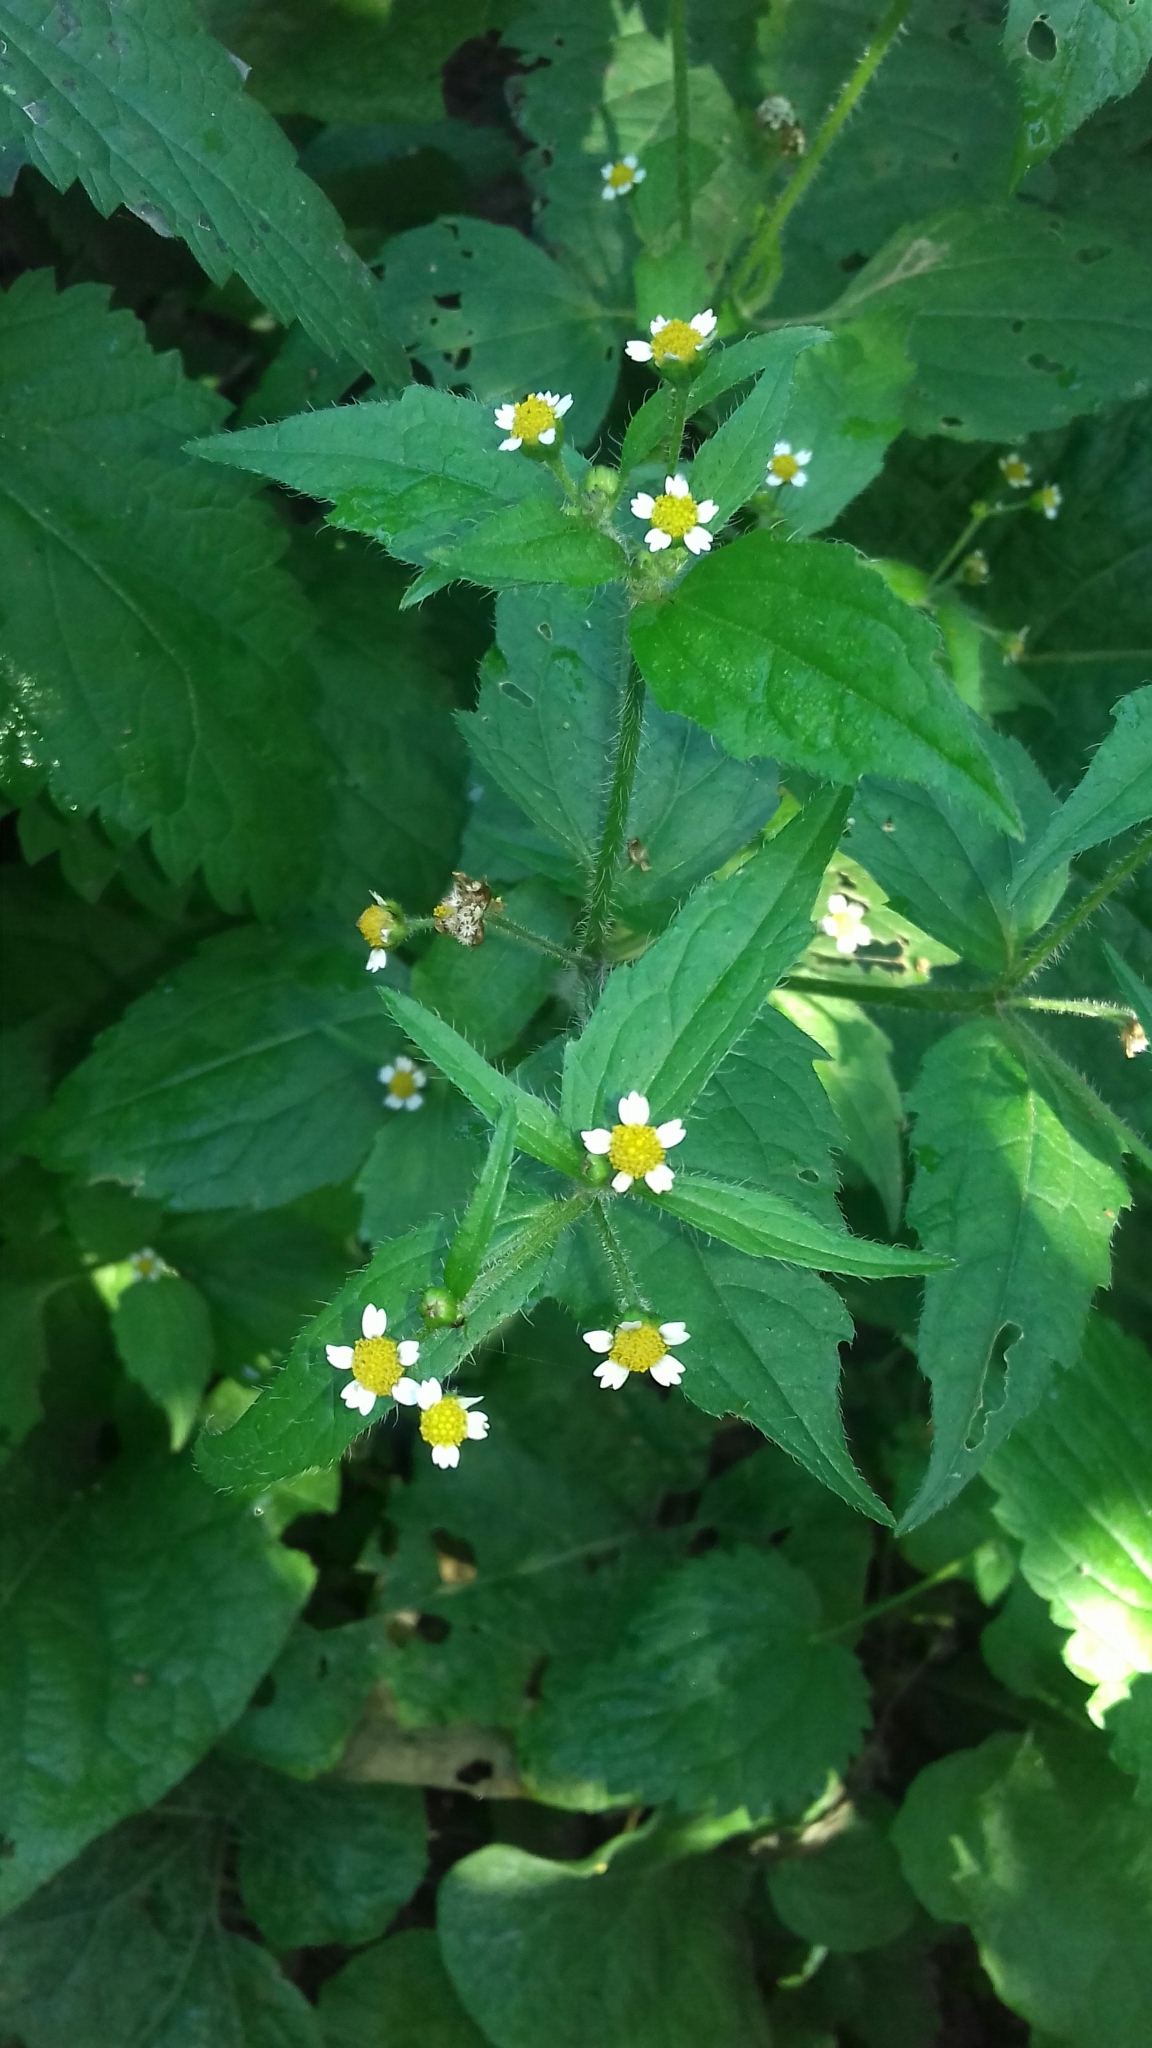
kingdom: Plantae
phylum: Tracheophyta
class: Magnoliopsida
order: Asterales
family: Asteraceae
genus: Galinsoga
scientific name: Galinsoga quadriradiata
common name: Shaggy soldier
